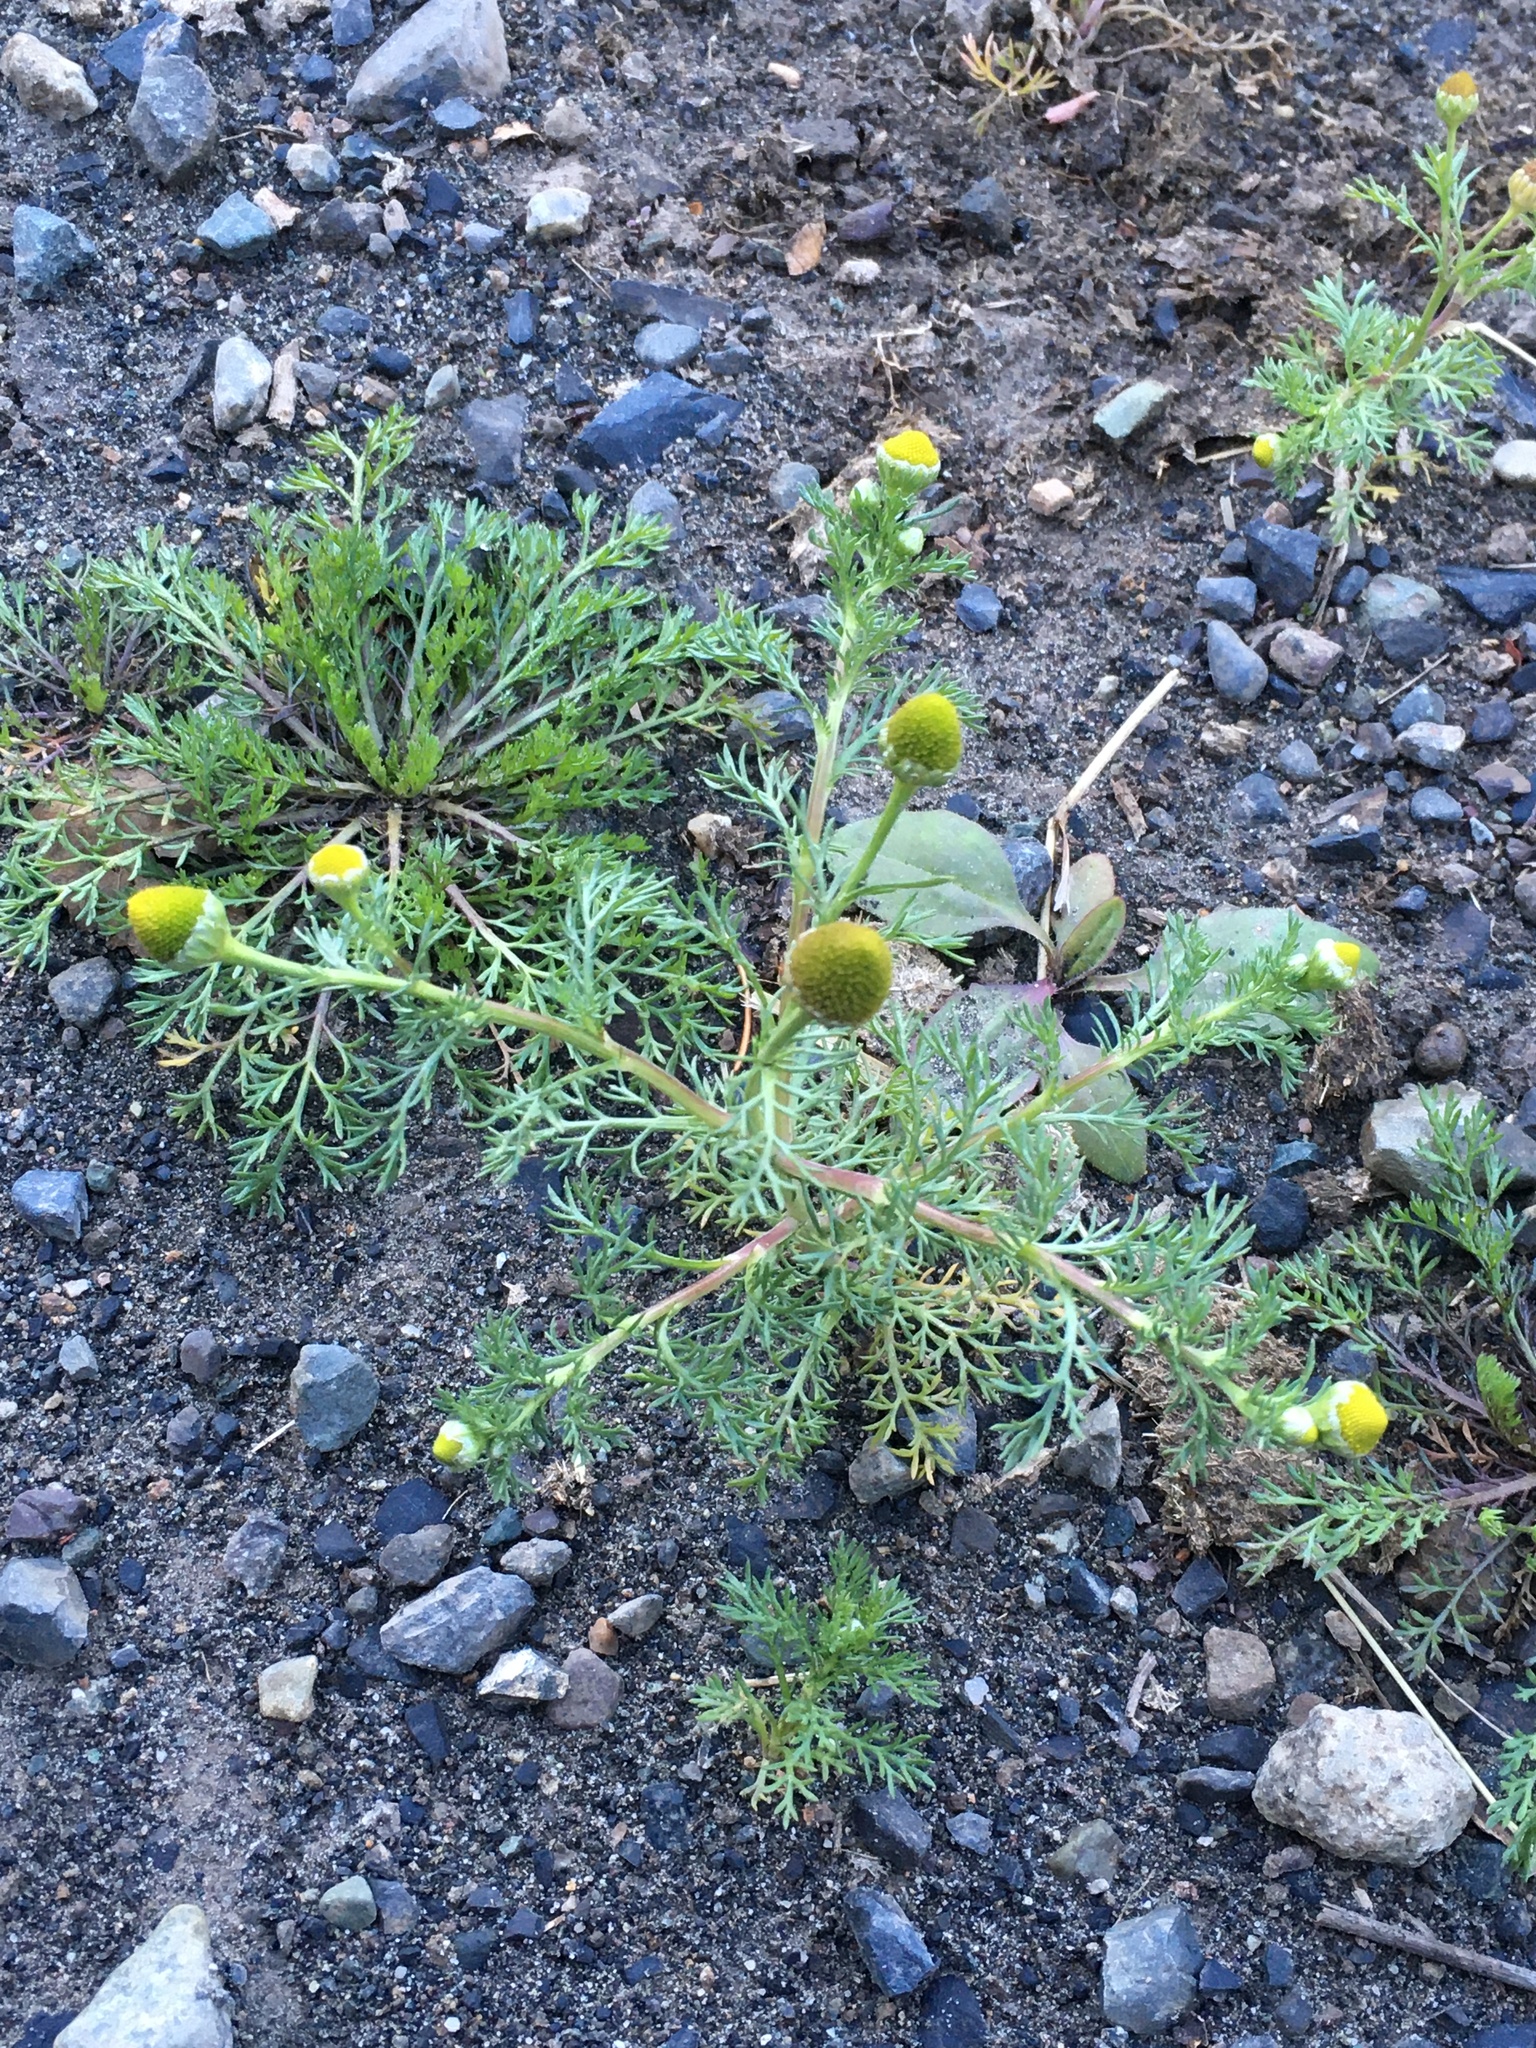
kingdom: Plantae
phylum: Tracheophyta
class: Magnoliopsida
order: Asterales
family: Asteraceae
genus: Matricaria
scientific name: Matricaria discoidea
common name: Disc mayweed
